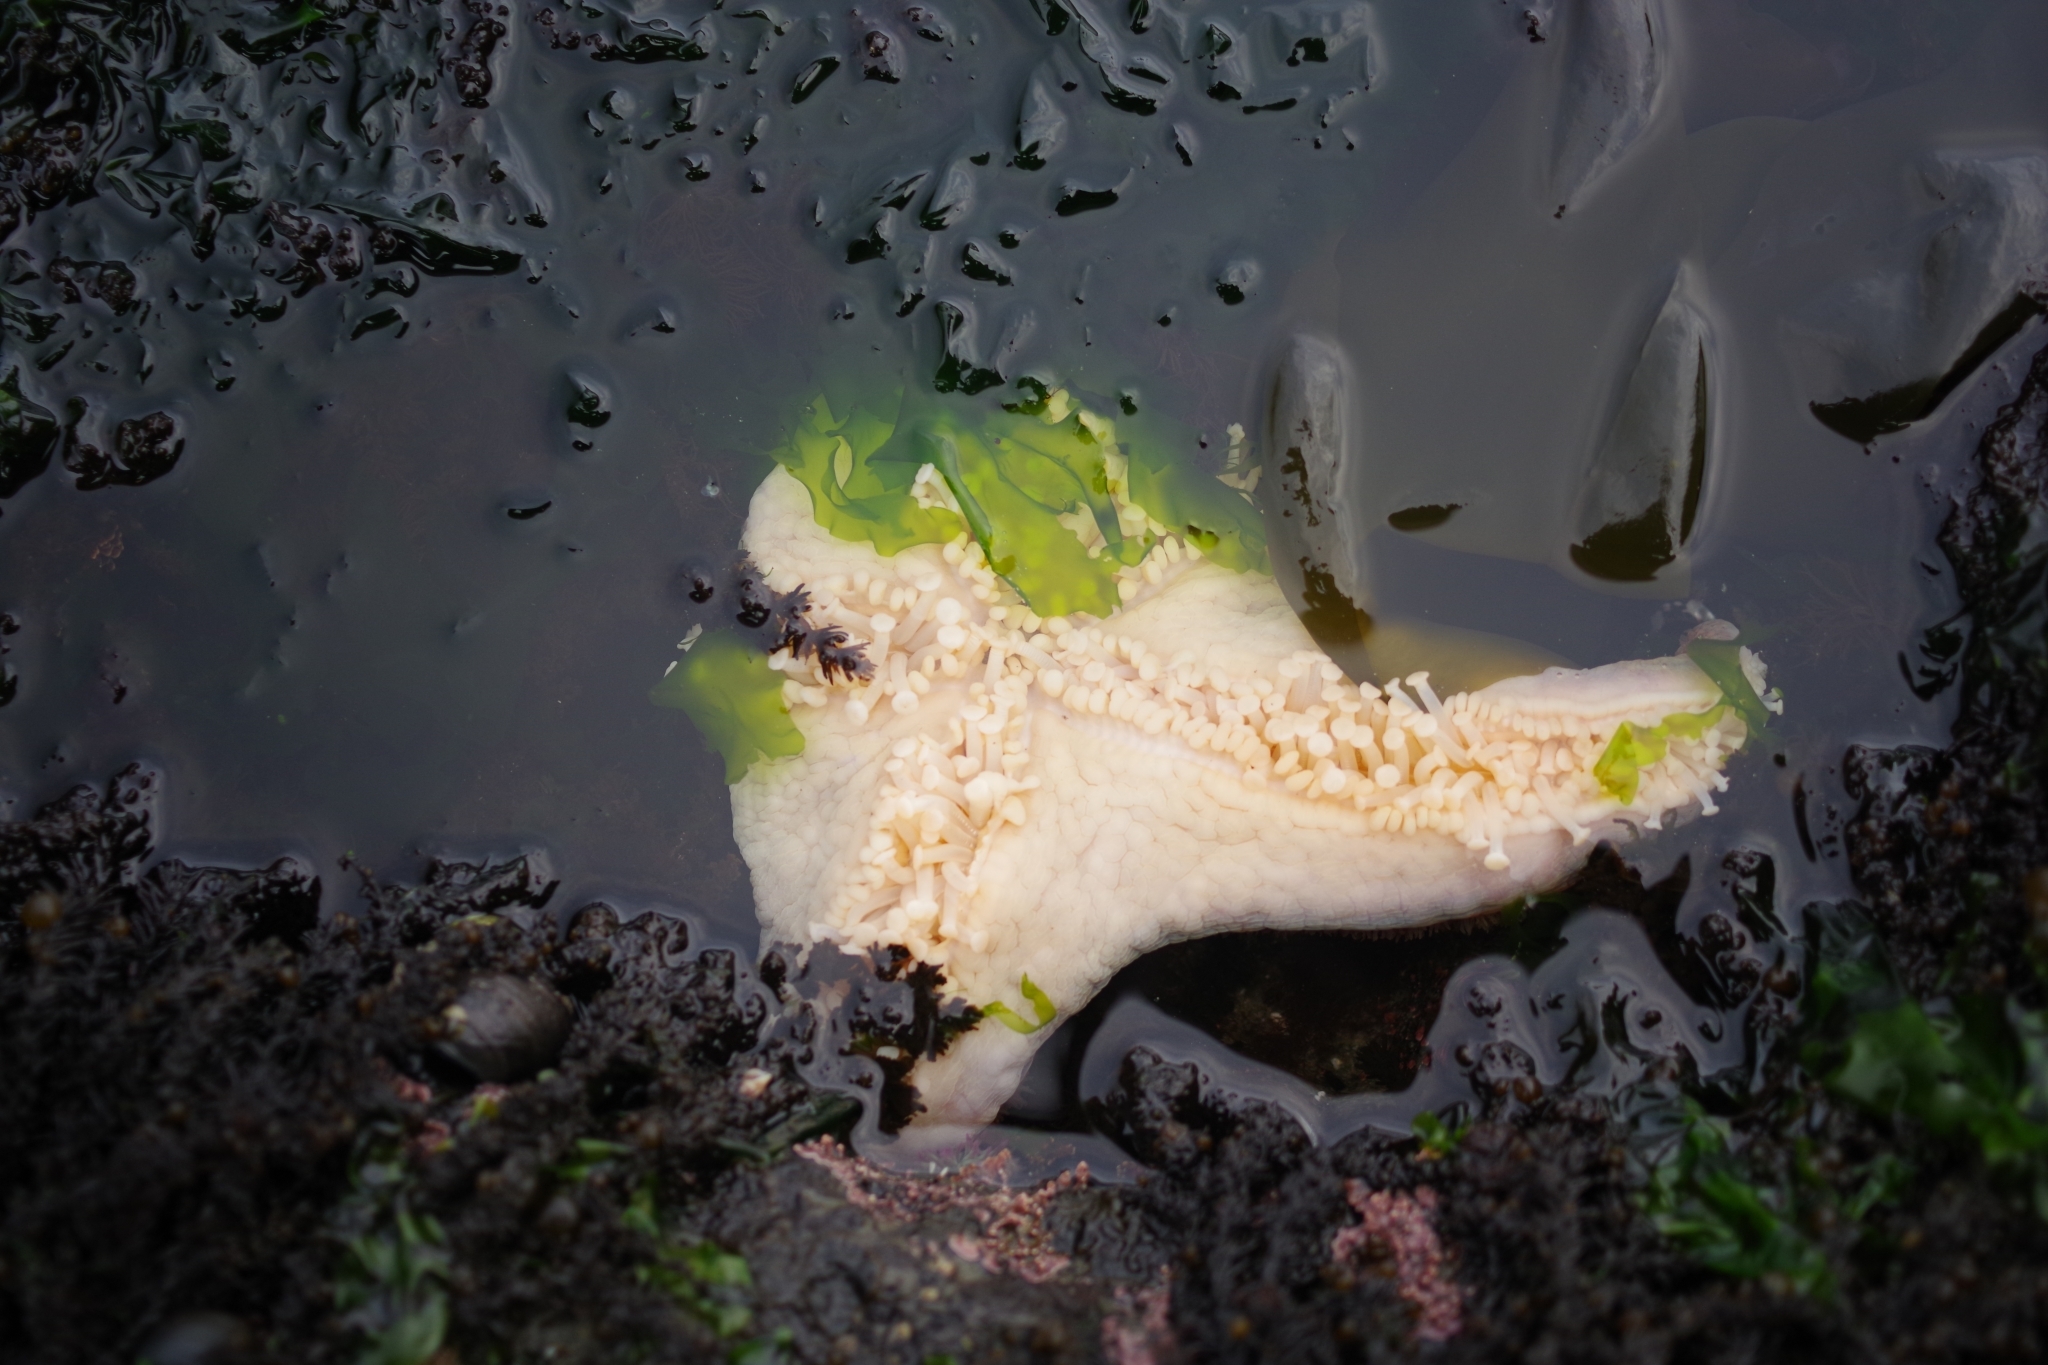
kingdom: Animalia
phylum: Echinodermata
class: Asteroidea
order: Valvatida
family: Asteropseidae
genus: Dermasterias
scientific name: Dermasterias imbricata
